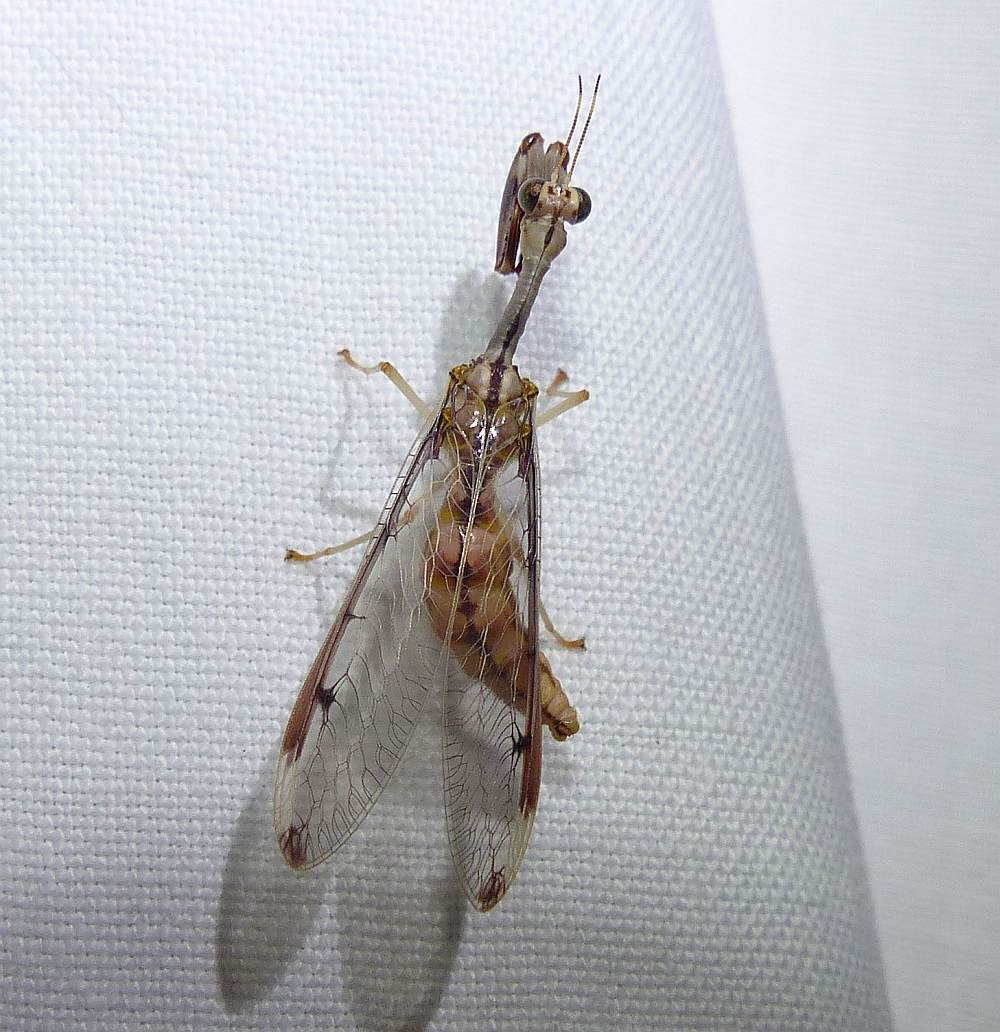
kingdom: Animalia
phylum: Arthropoda
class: Insecta
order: Neuroptera
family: Mantispidae
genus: Dicromantispa
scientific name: Dicromantispa interrupta
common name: Four-spotted mantidfly
